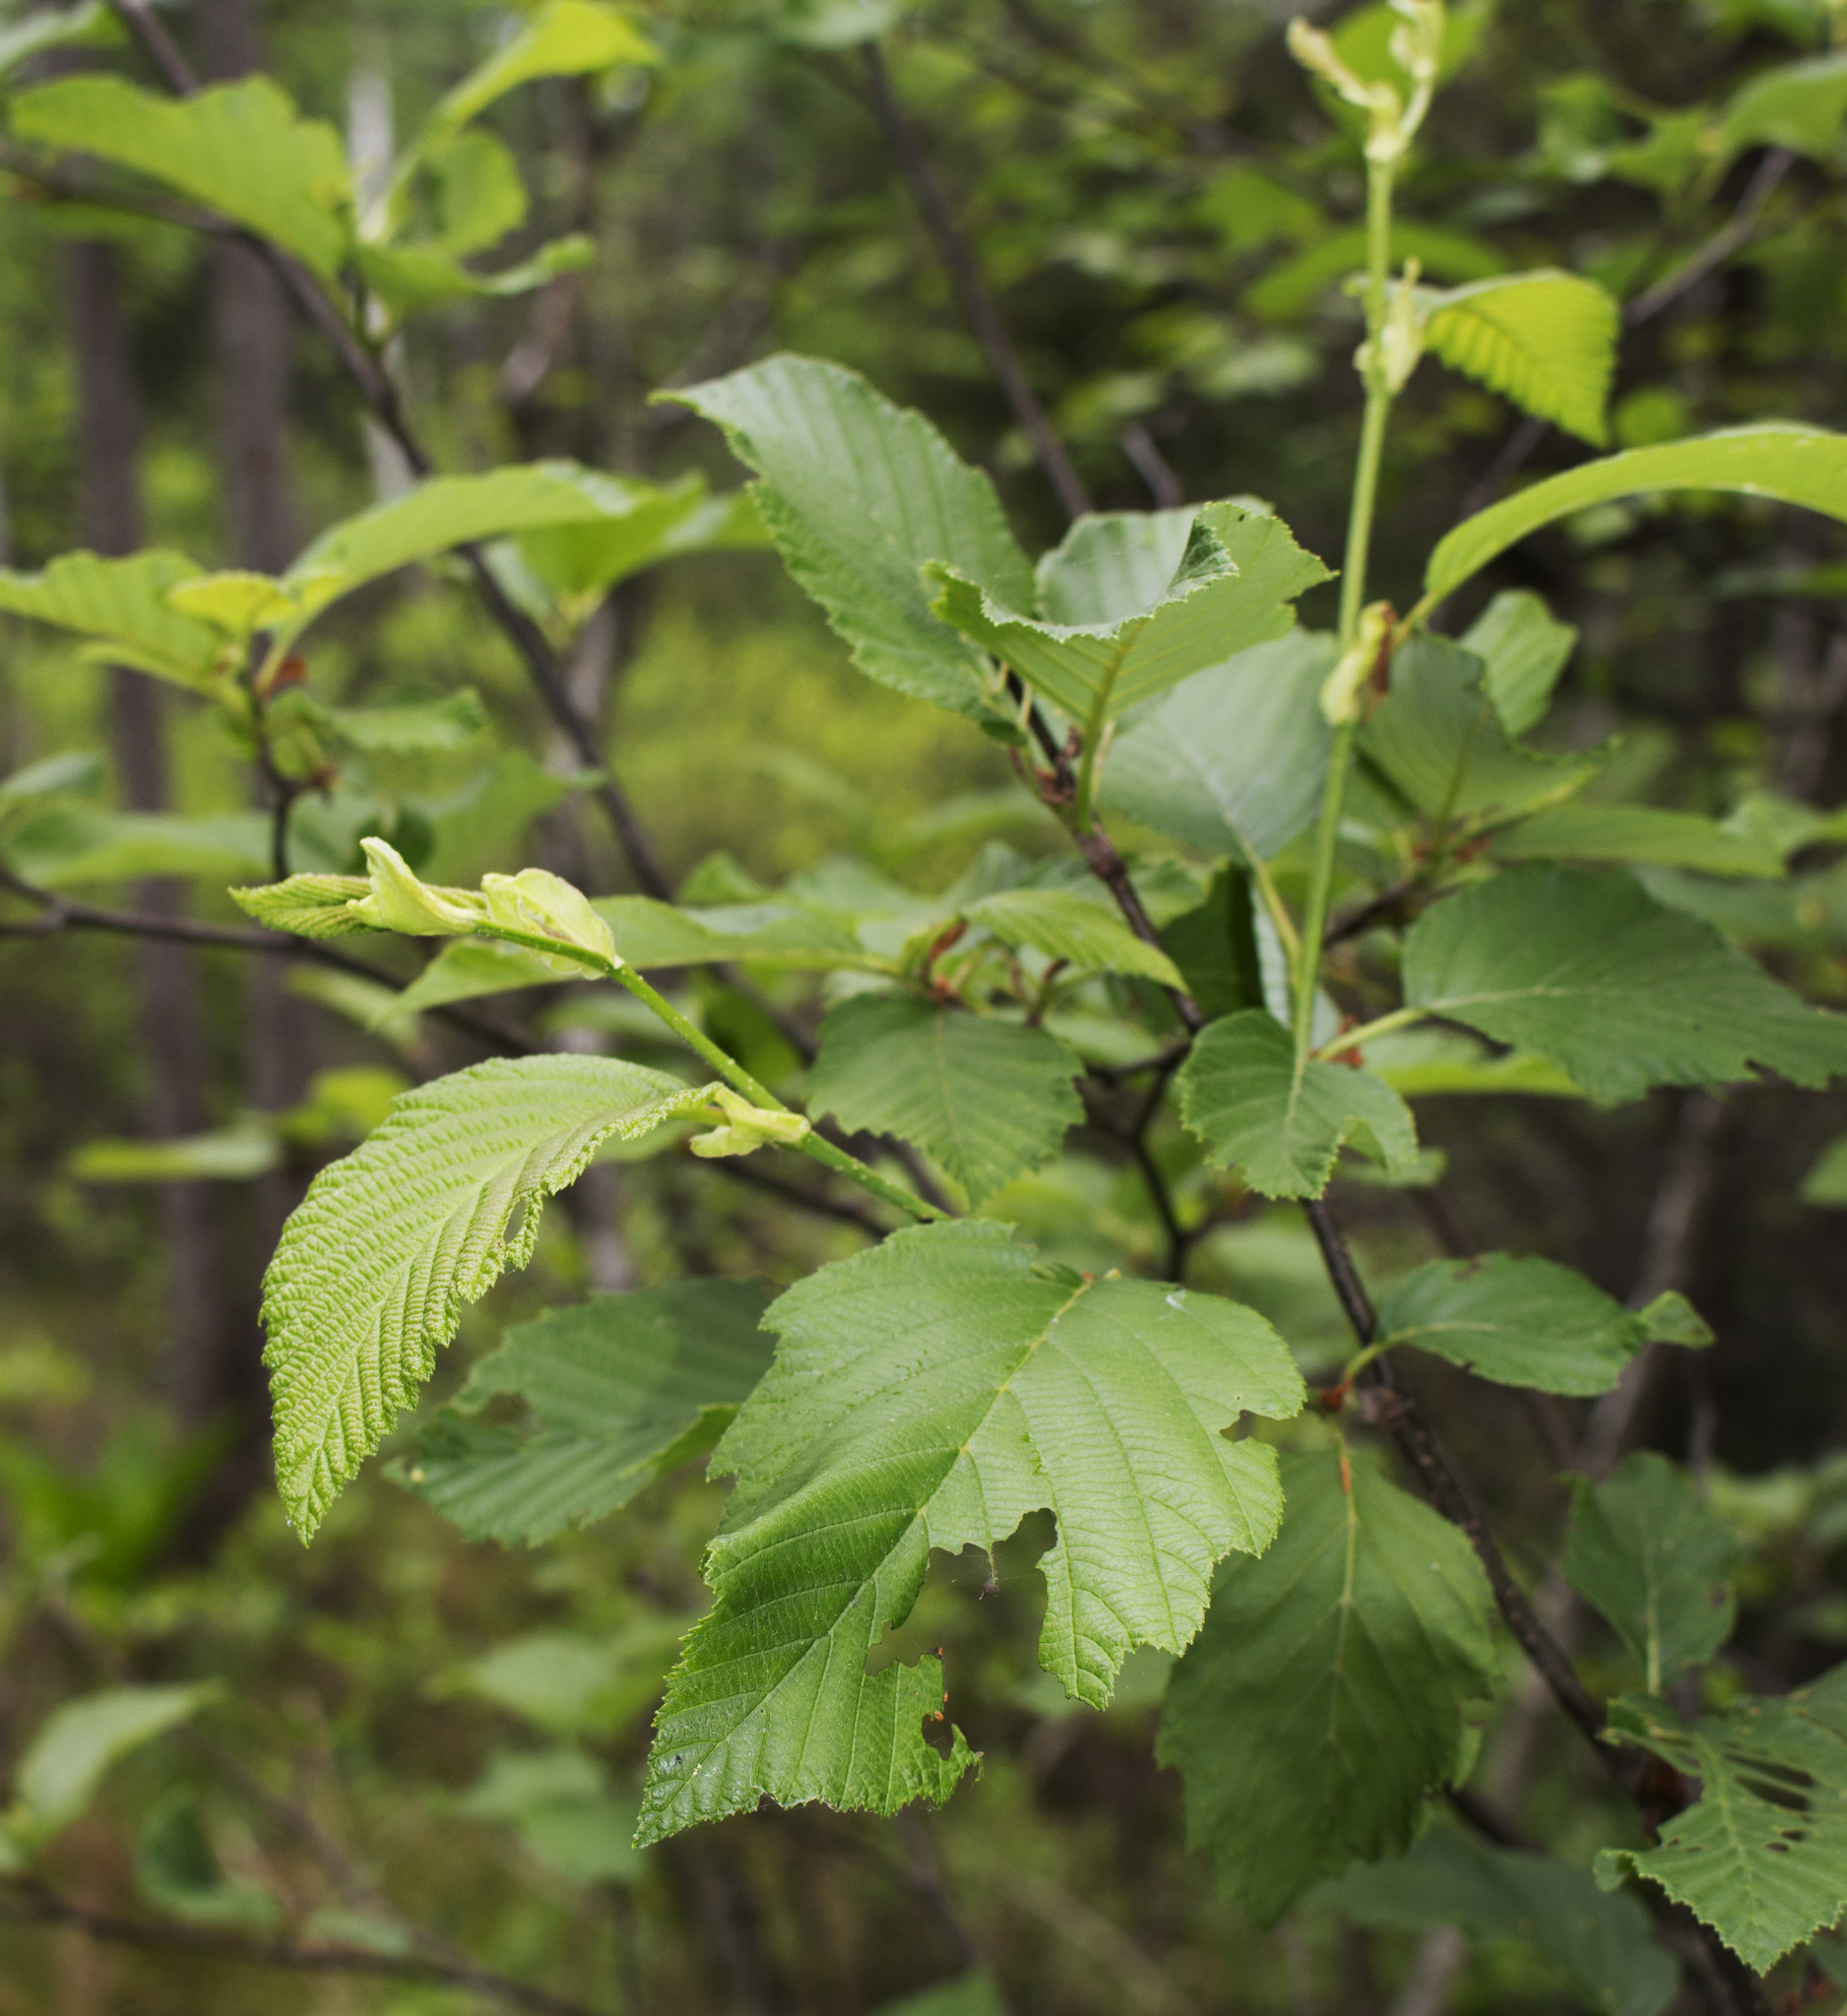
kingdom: Plantae
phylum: Tracheophyta
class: Magnoliopsida
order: Fagales
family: Betulaceae
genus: Alnus
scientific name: Alnus incana
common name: Grey alder
